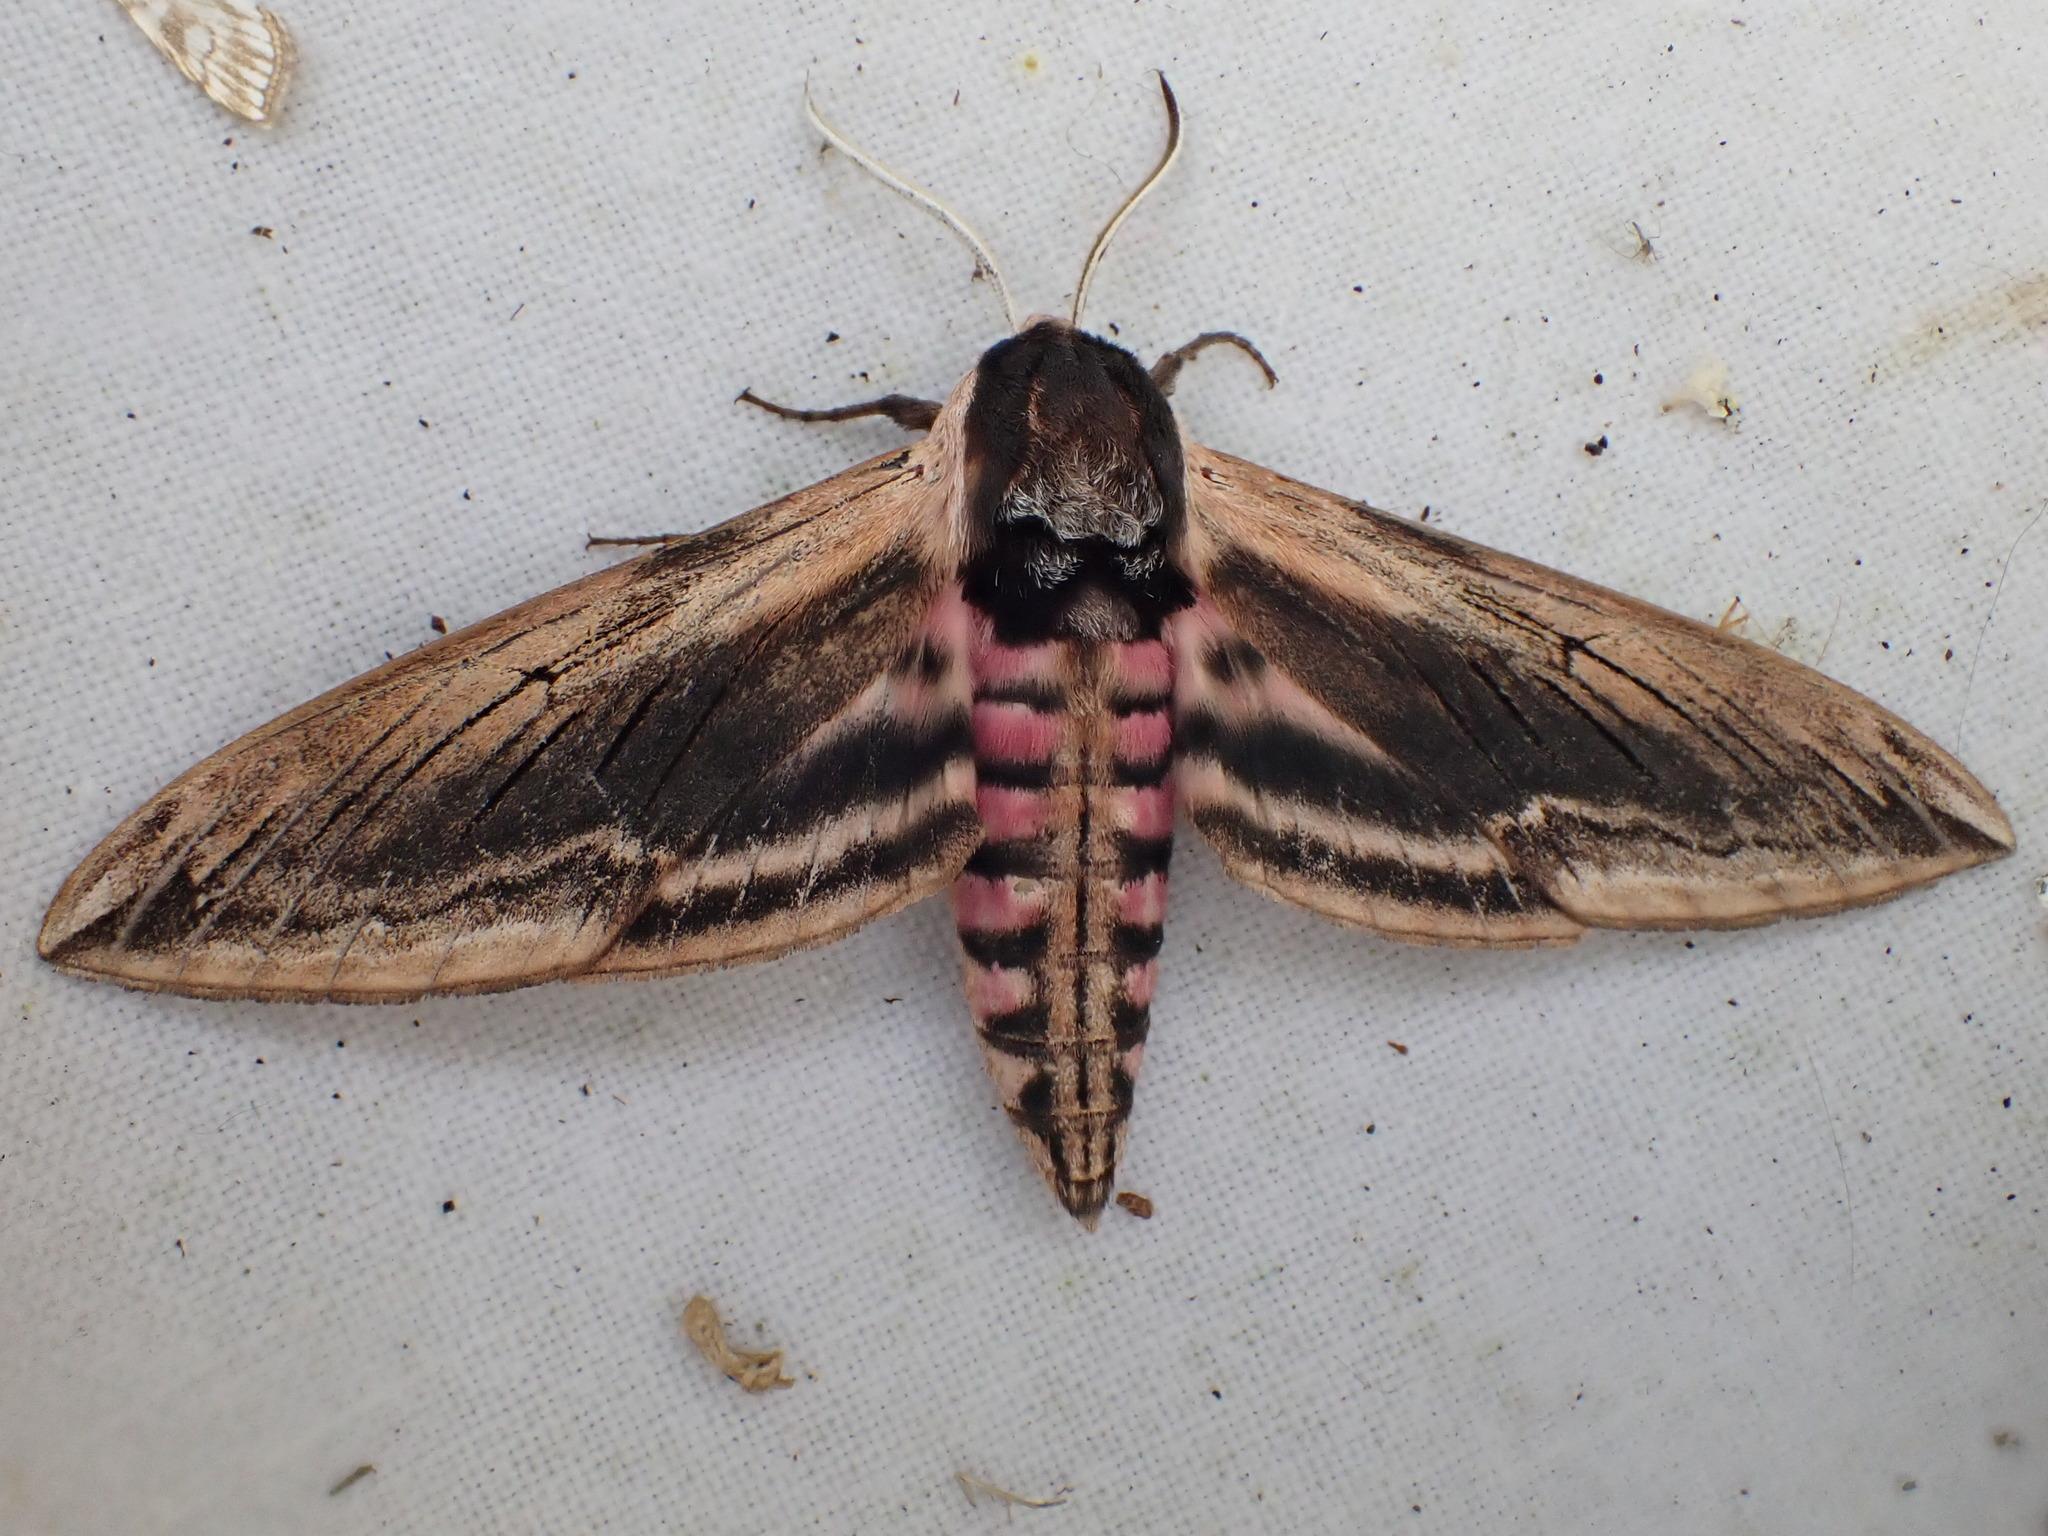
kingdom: Animalia
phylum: Arthropoda
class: Insecta
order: Lepidoptera
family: Sphingidae
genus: Sphinx
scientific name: Sphinx ligustri
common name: Privet hawk-moth
